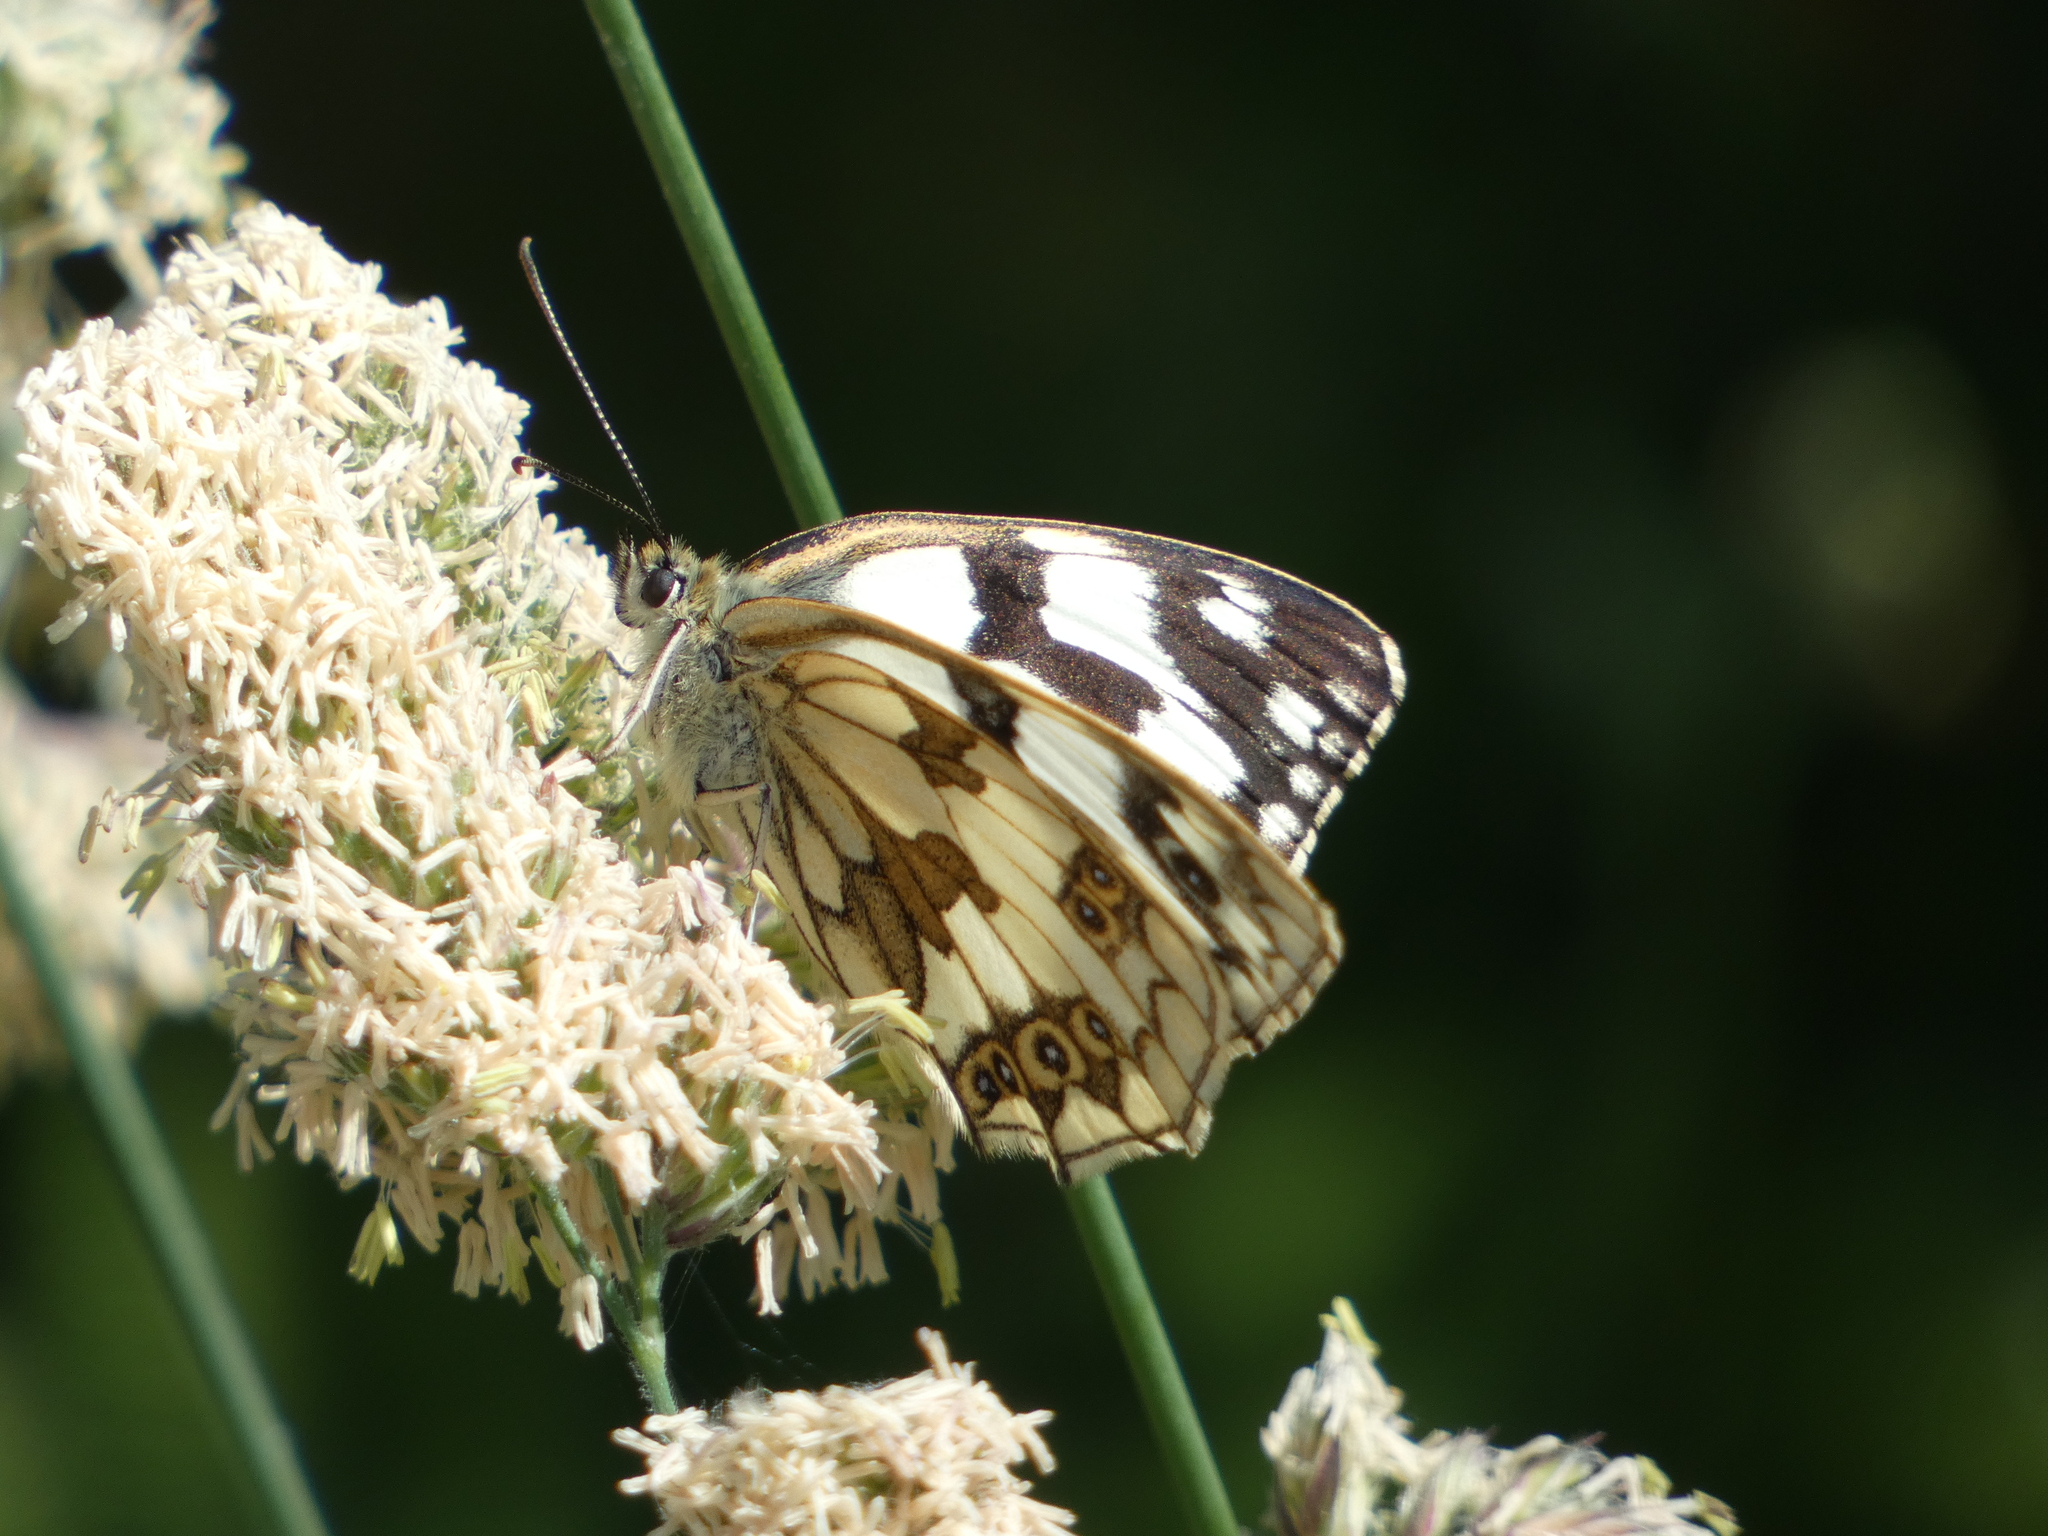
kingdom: Animalia
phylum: Arthropoda
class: Insecta
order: Lepidoptera
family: Nymphalidae
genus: Melanargia
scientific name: Melanargia galathea
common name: Marbled white
